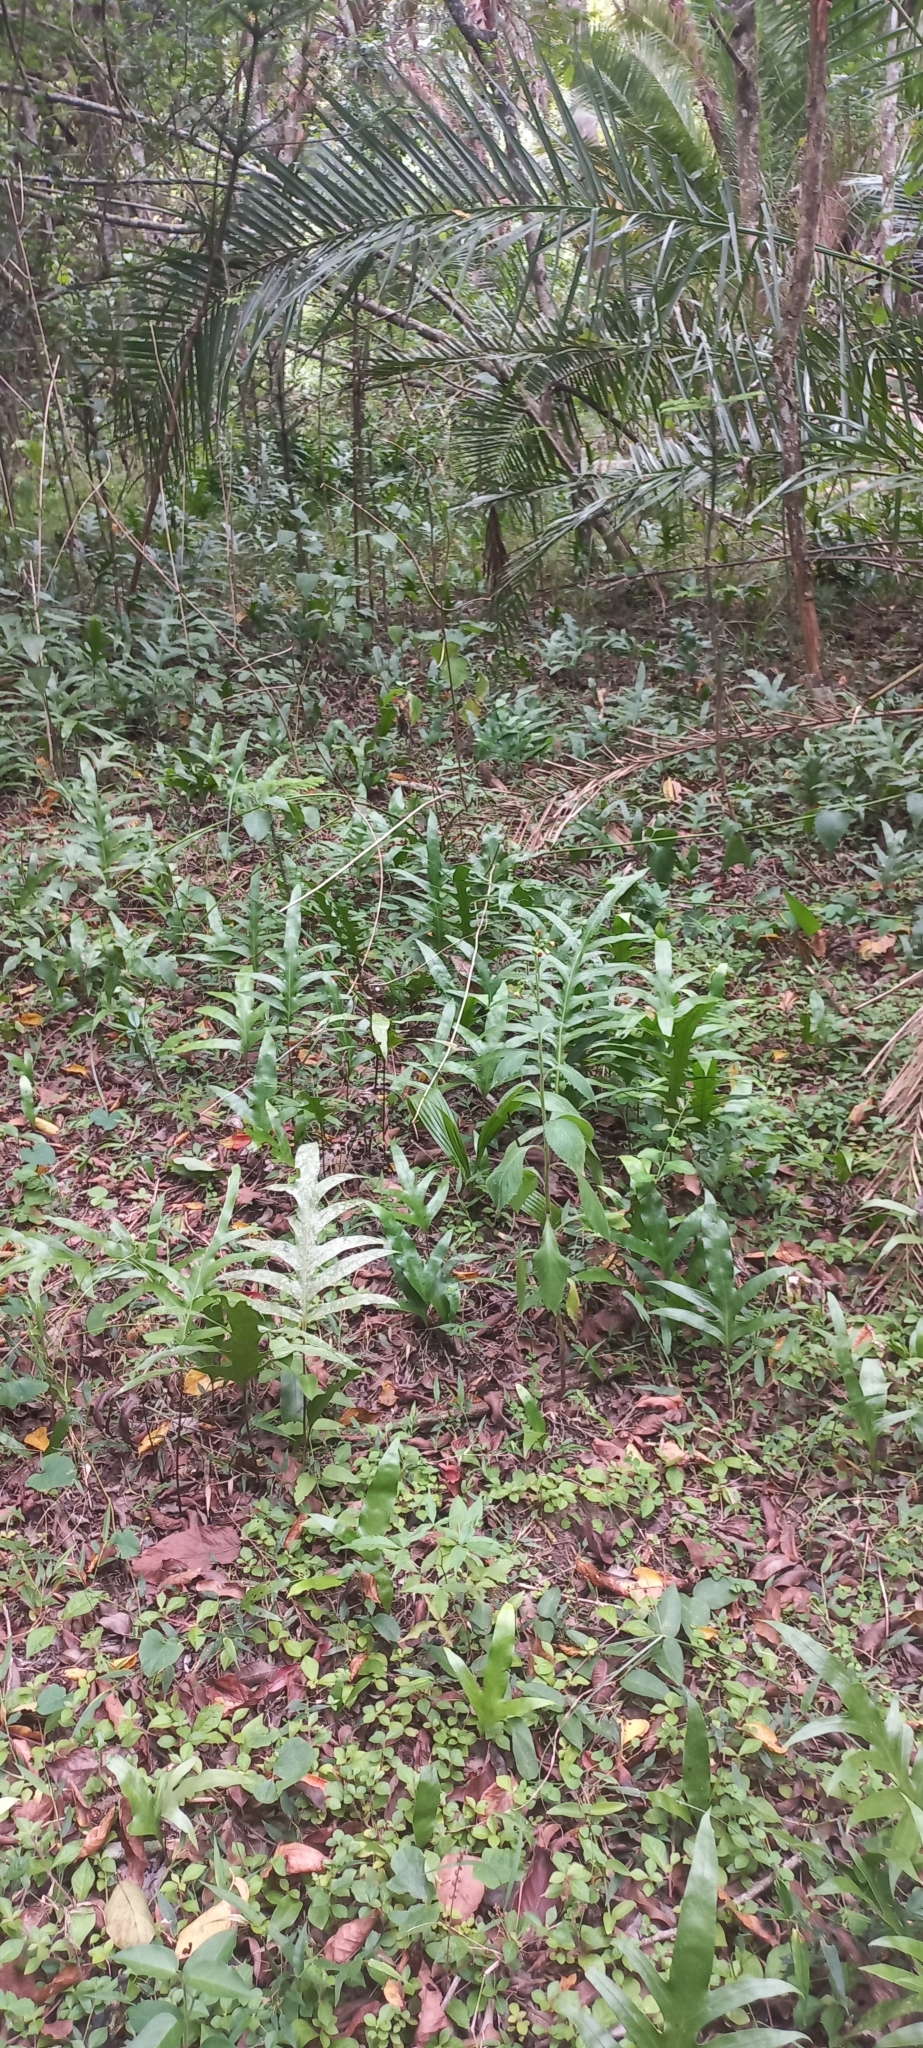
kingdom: Plantae
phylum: Tracheophyta
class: Polypodiopsida
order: Polypodiales
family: Polypodiaceae
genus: Microsorum
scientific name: Microsorum scolopendria
